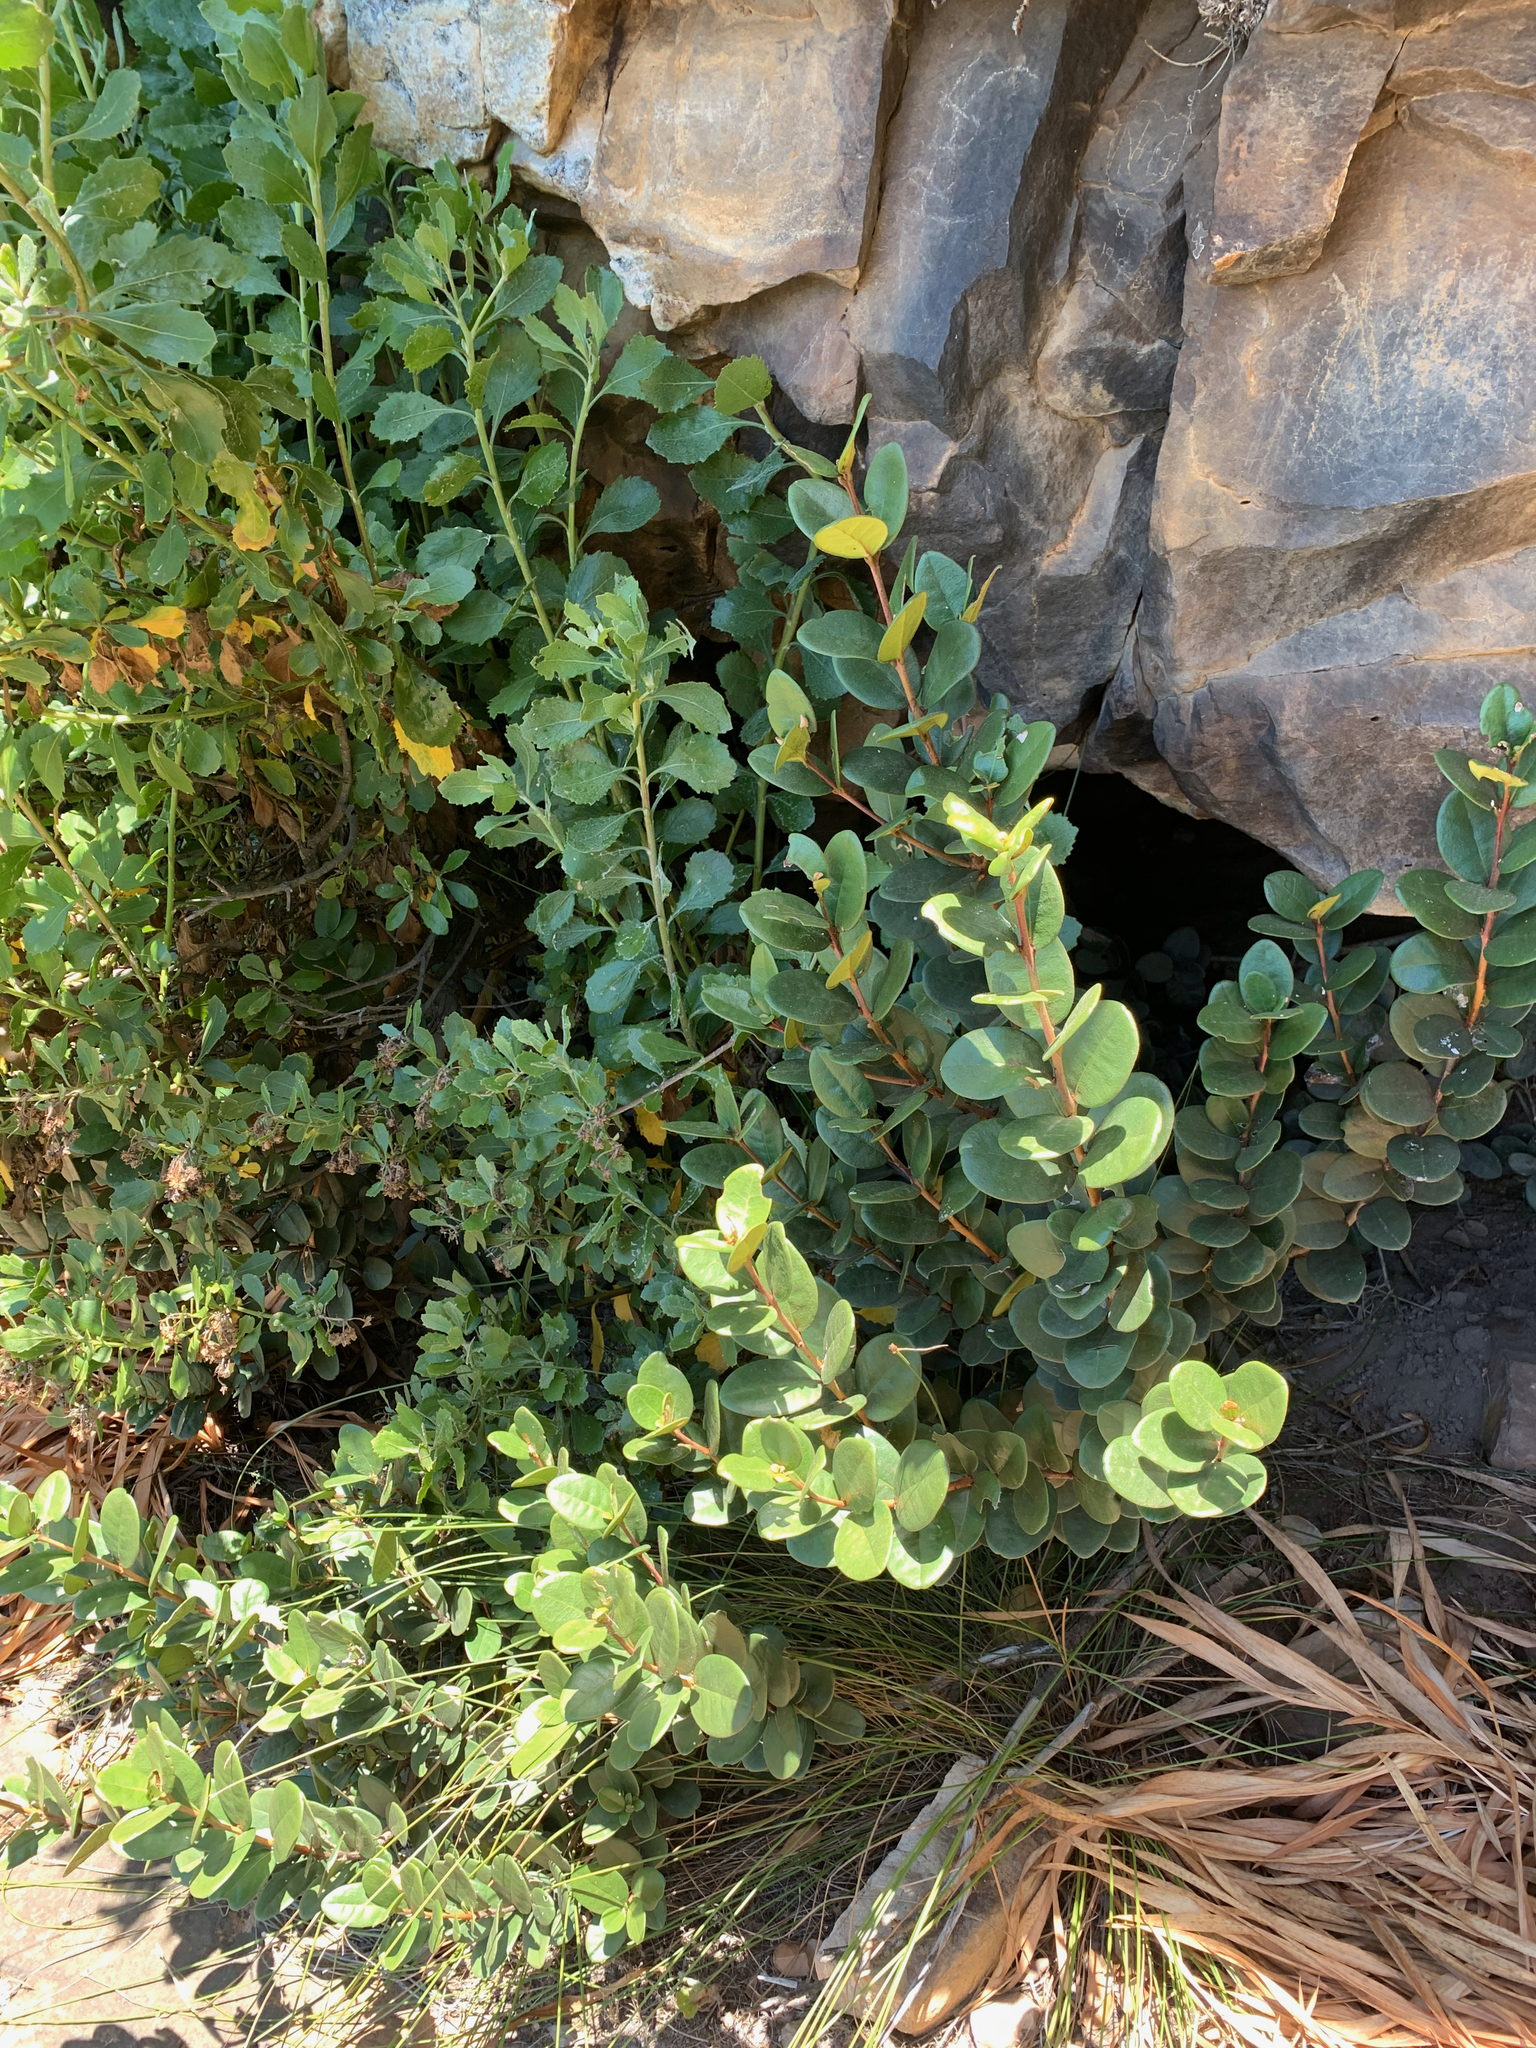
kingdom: Plantae
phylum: Tracheophyta
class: Magnoliopsida
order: Celastrales
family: Celastraceae
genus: Maurocenia
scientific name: Maurocenia frangula
